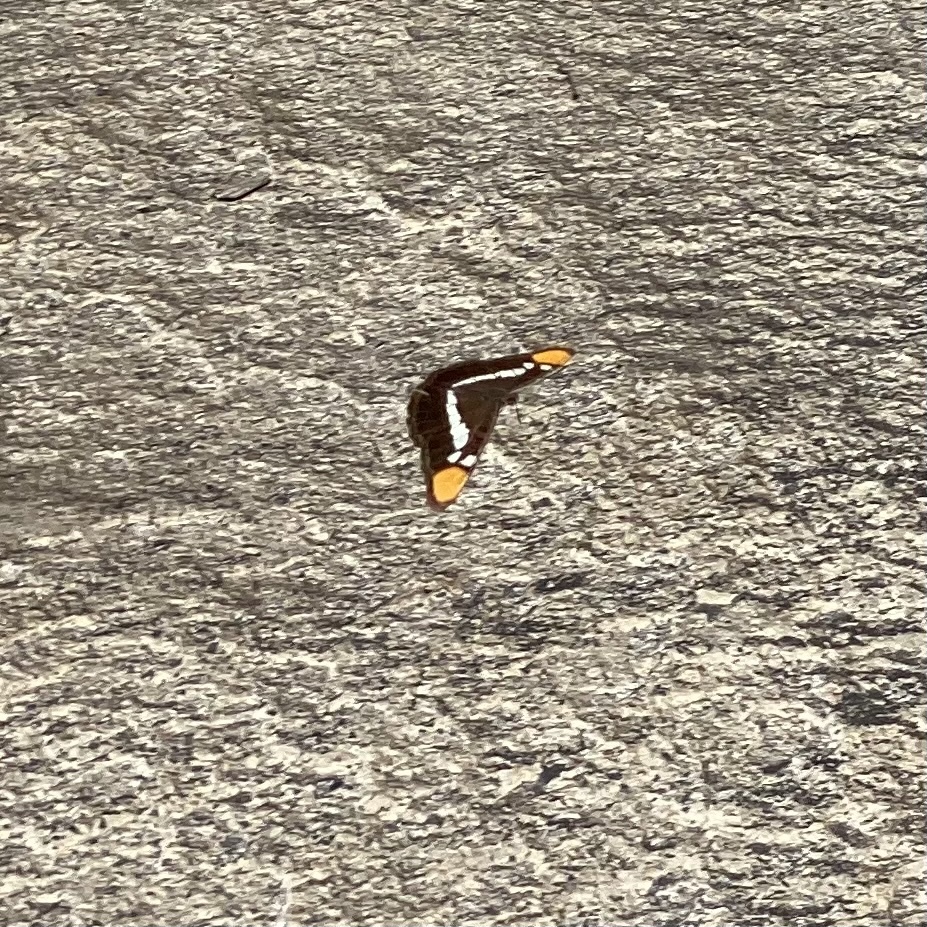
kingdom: Animalia
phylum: Arthropoda
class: Insecta
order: Lepidoptera
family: Nymphalidae
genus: Limenitis
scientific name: Limenitis bredowii
